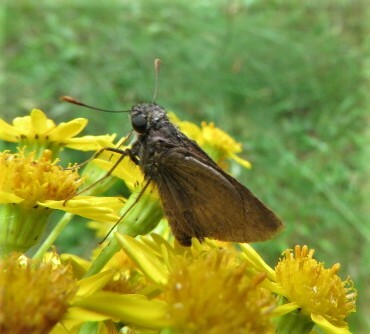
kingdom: Animalia
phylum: Arthropoda
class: Insecta
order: Lepidoptera
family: Hesperiidae
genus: Euphyes
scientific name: Euphyes vestris
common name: Dun skipper
